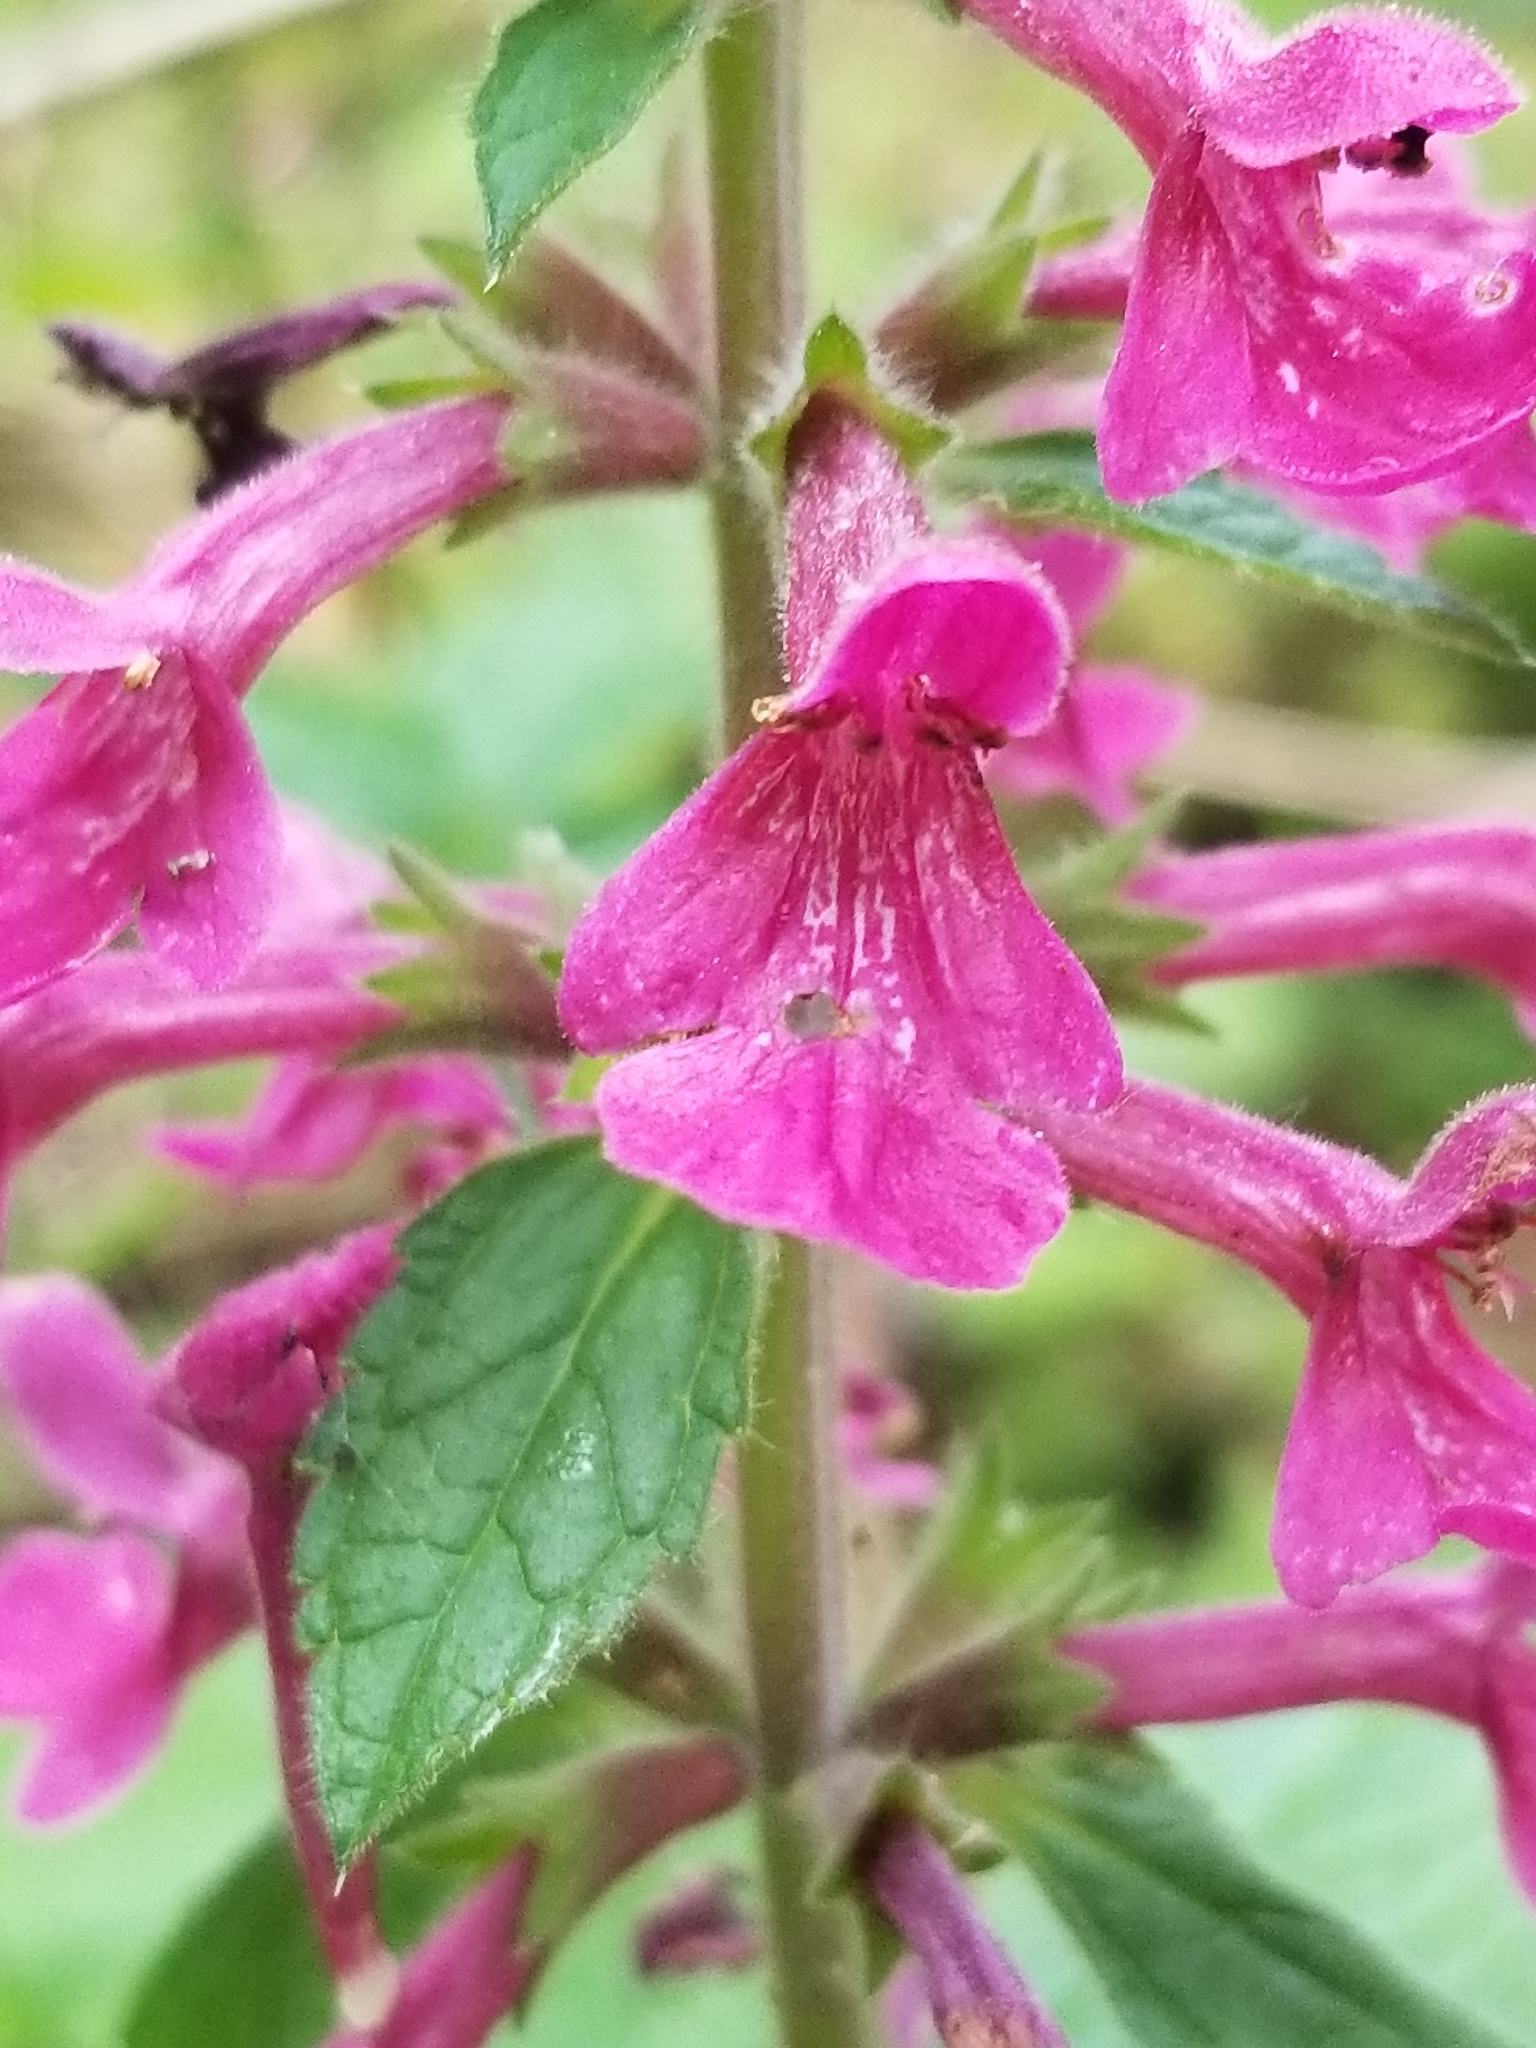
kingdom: Plantae
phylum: Tracheophyta
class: Magnoliopsida
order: Lamiales
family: Lamiaceae
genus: Stachys
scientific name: Stachys chamissonis
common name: Coastal hedge-nettle
